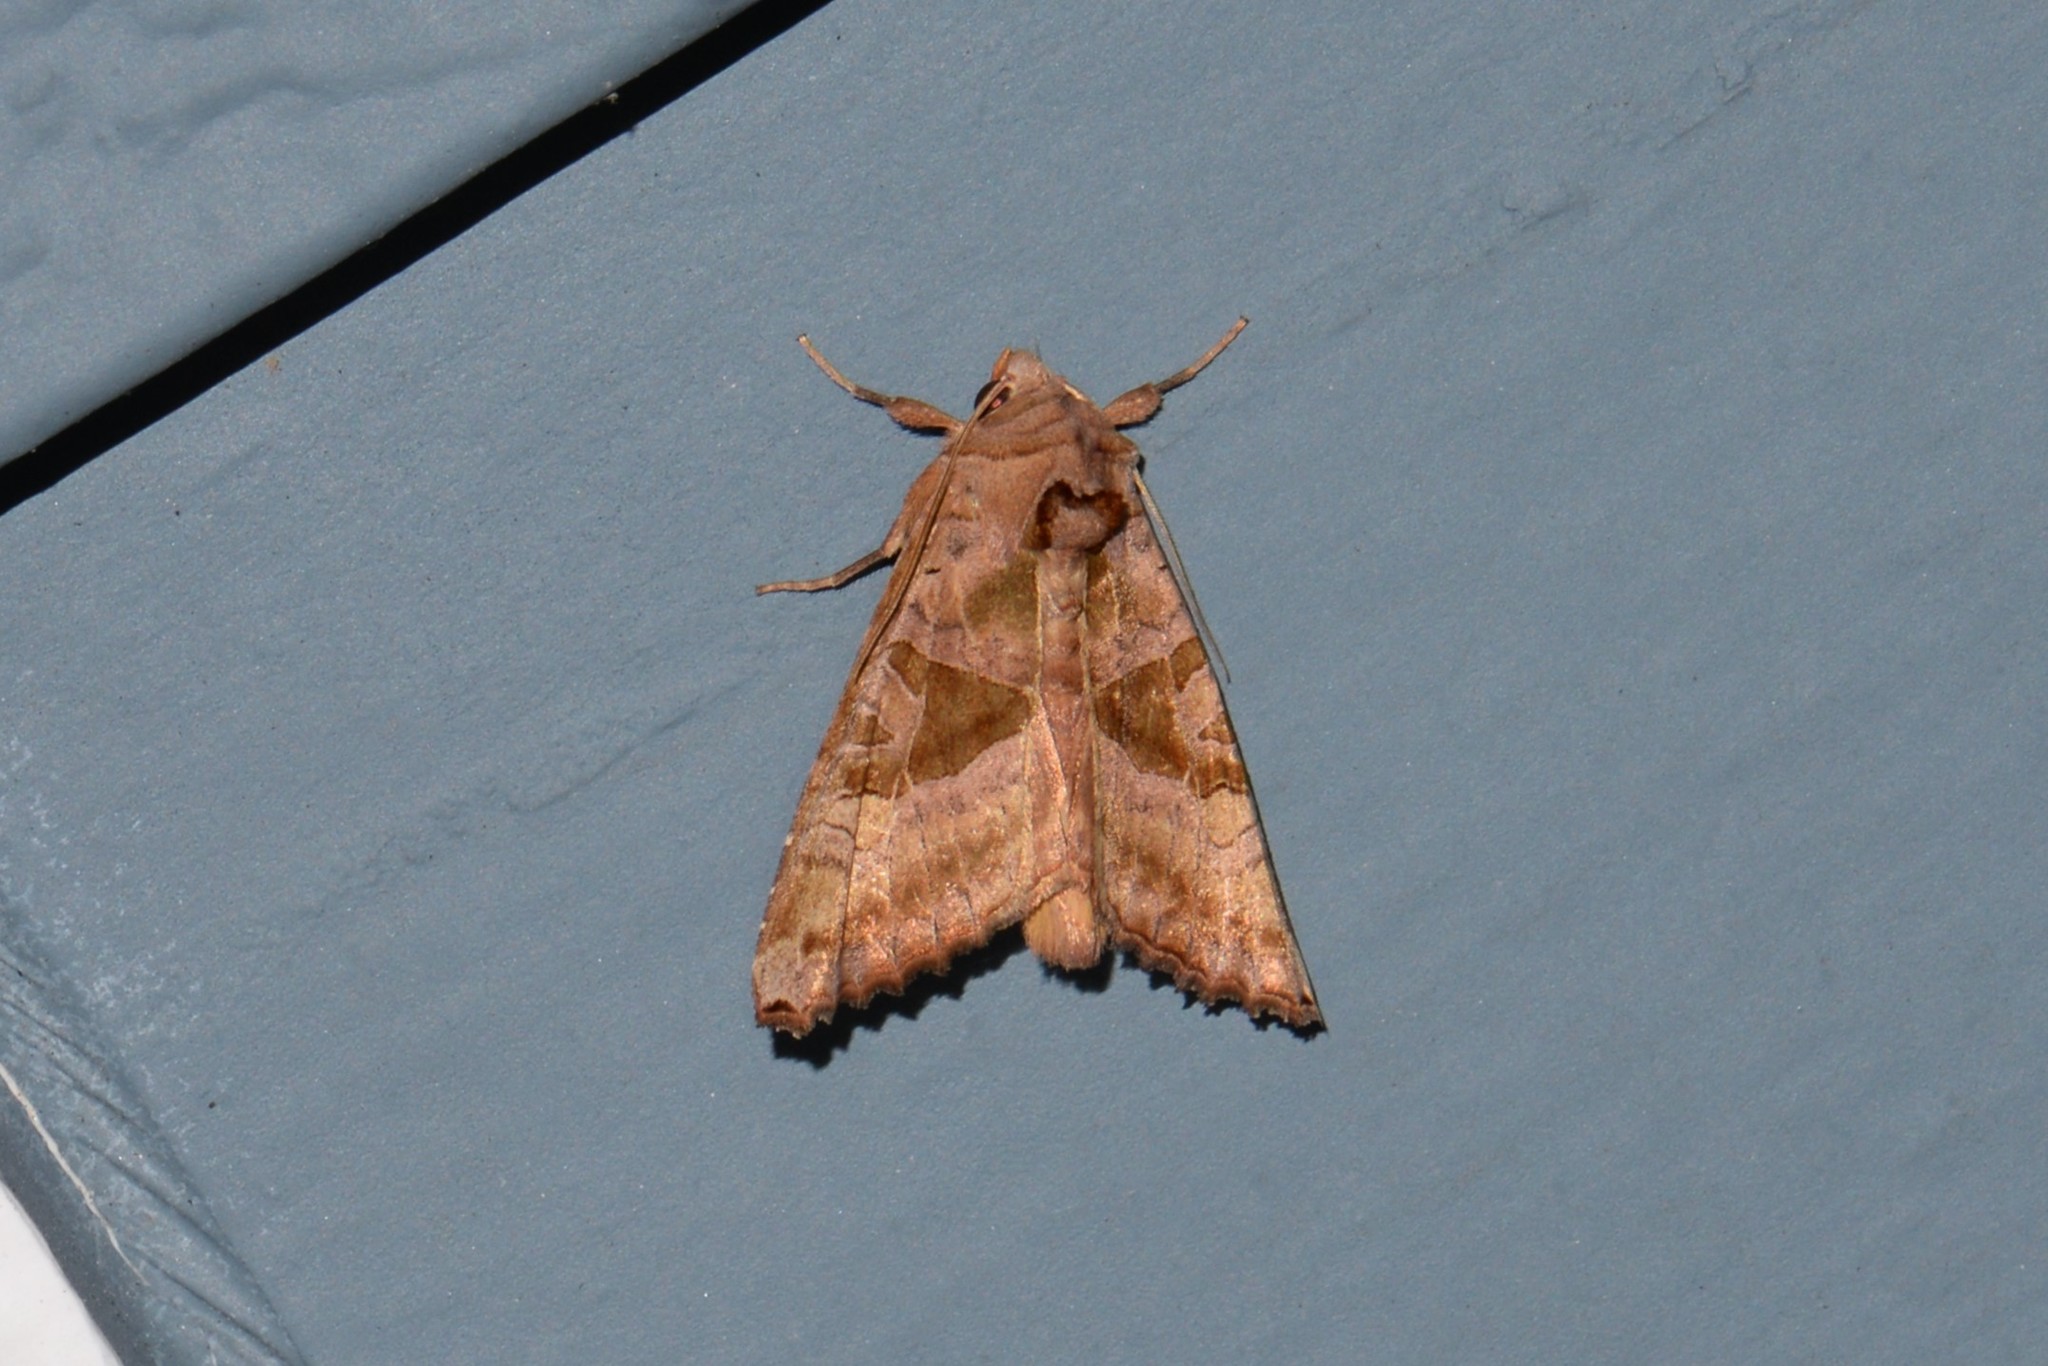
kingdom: Animalia
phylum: Arthropoda
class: Insecta
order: Lepidoptera
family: Noctuidae
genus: Phlogophora
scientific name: Phlogophora periculosa
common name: Brown angle shades
